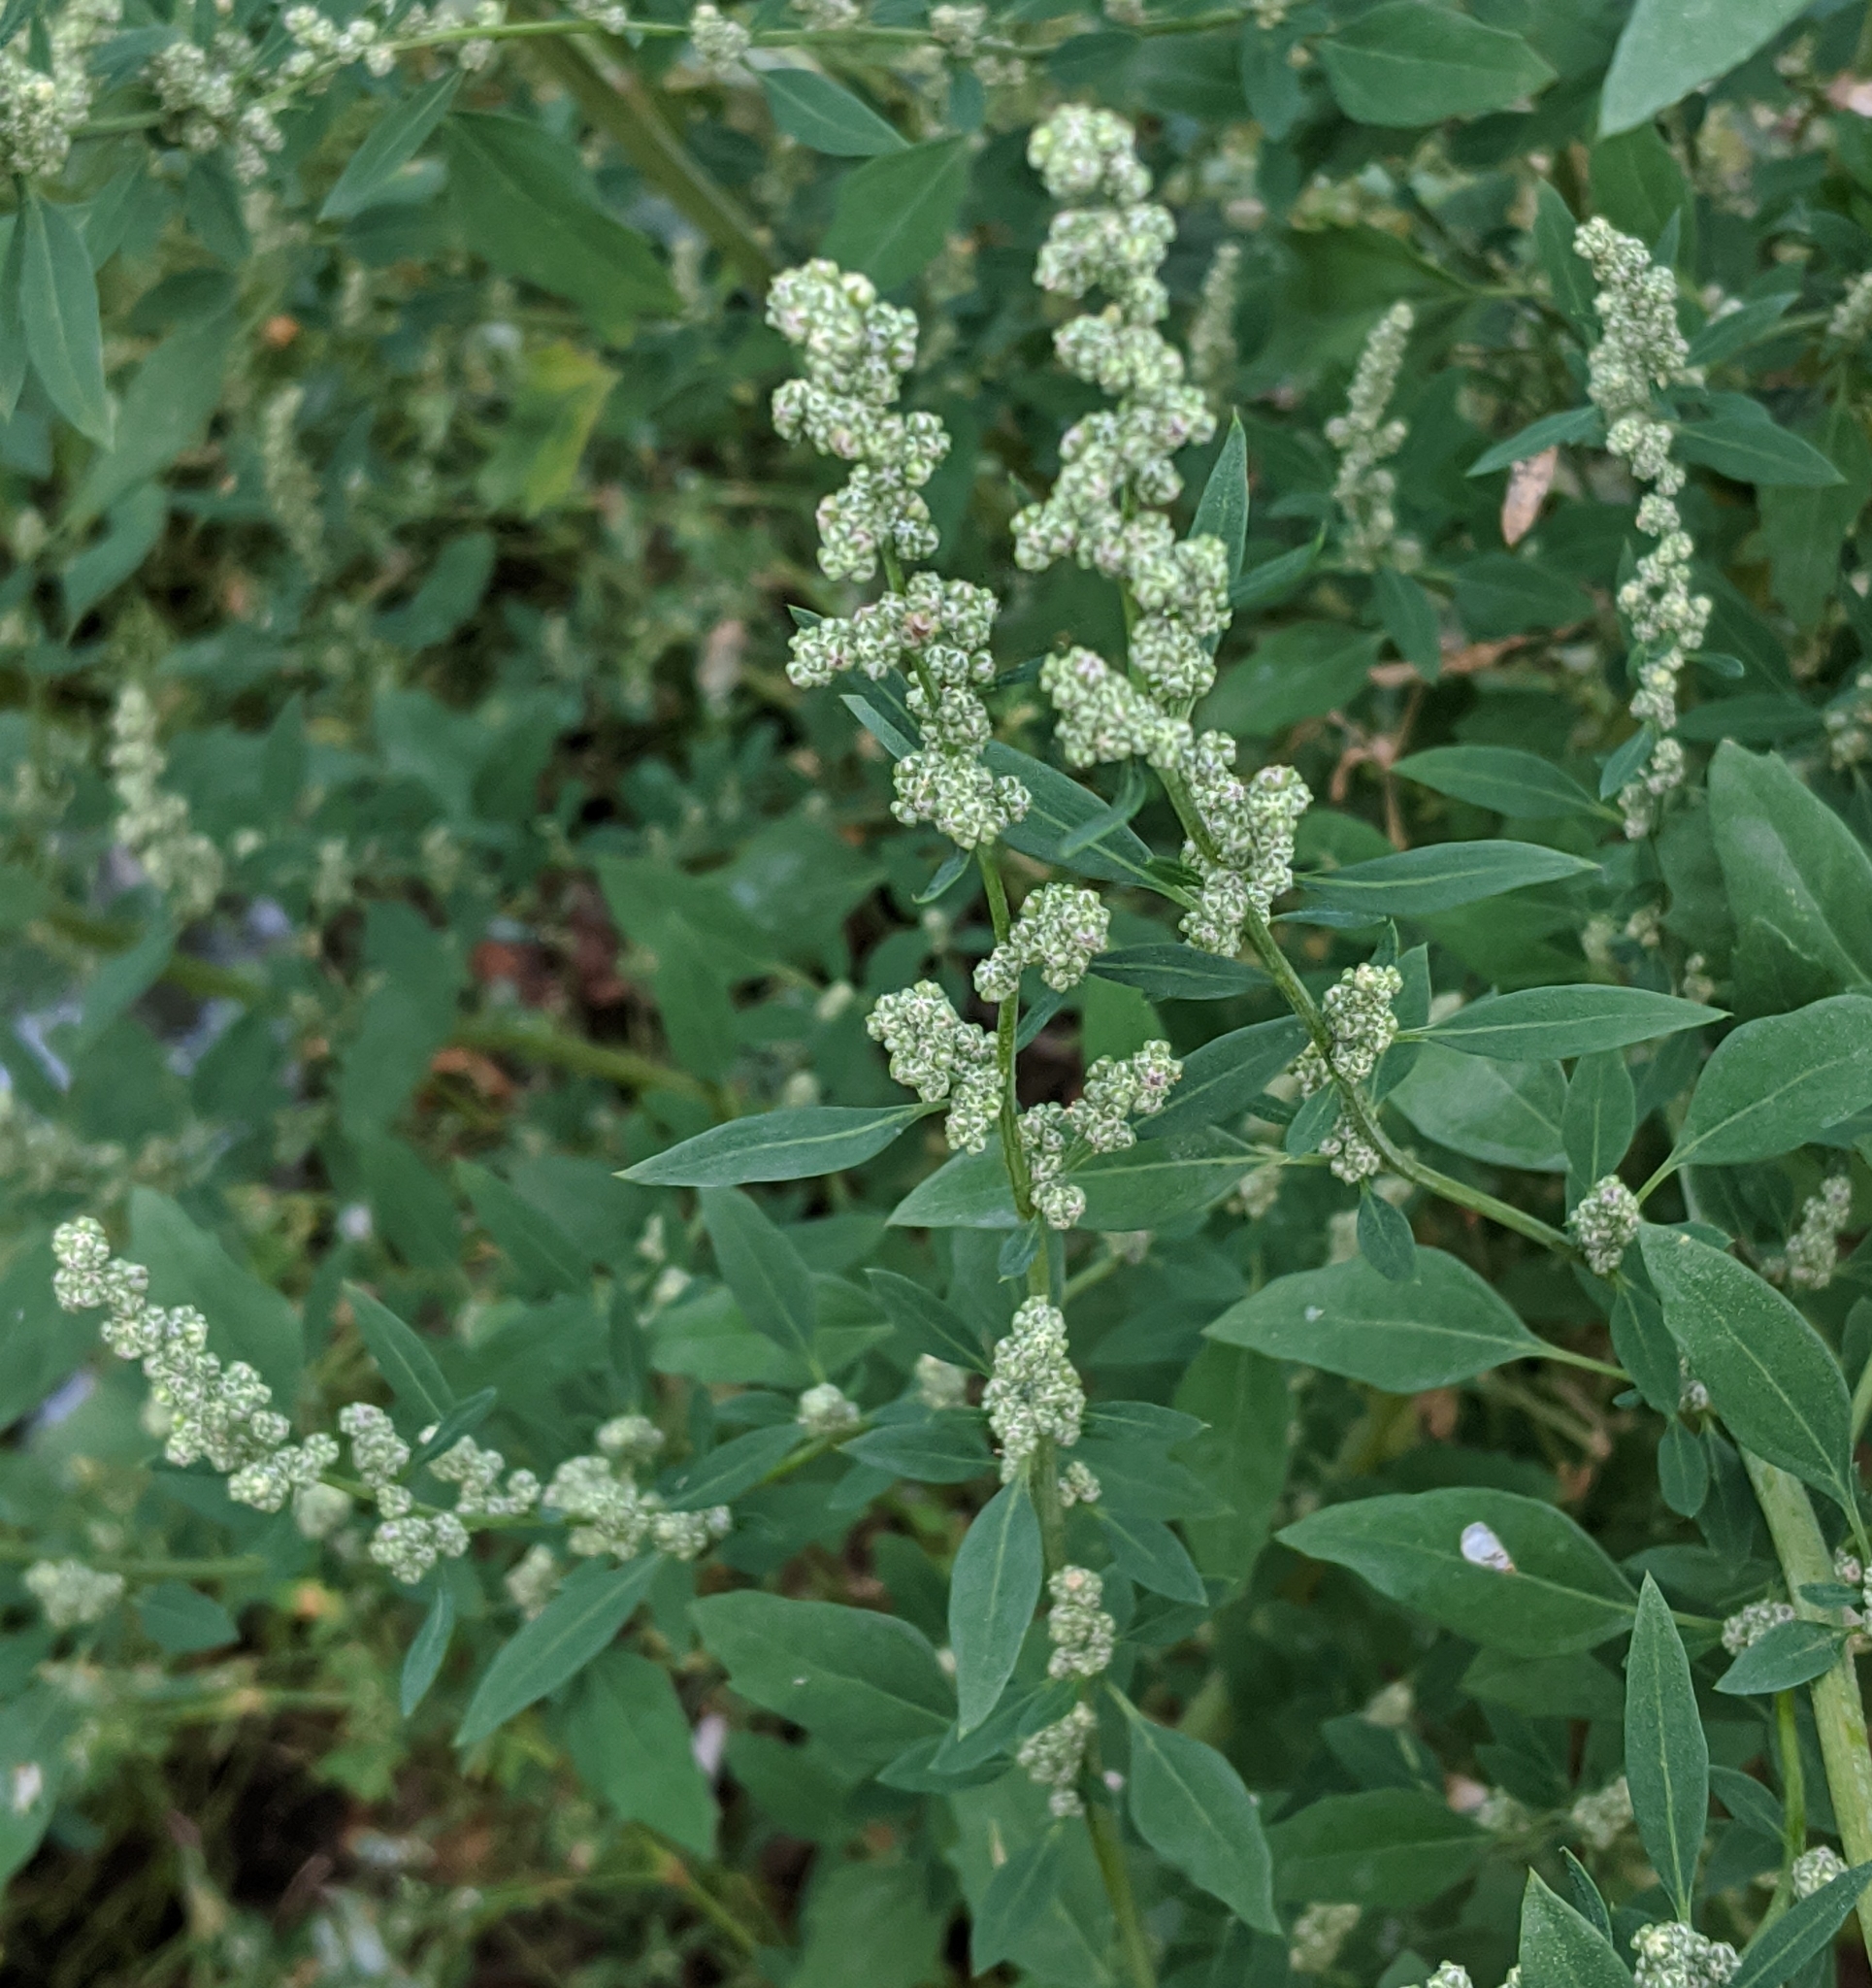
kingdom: Plantae
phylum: Tracheophyta
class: Magnoliopsida
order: Caryophyllales
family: Amaranthaceae
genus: Chenopodium
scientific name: Chenopodium album
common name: Fat-hen
